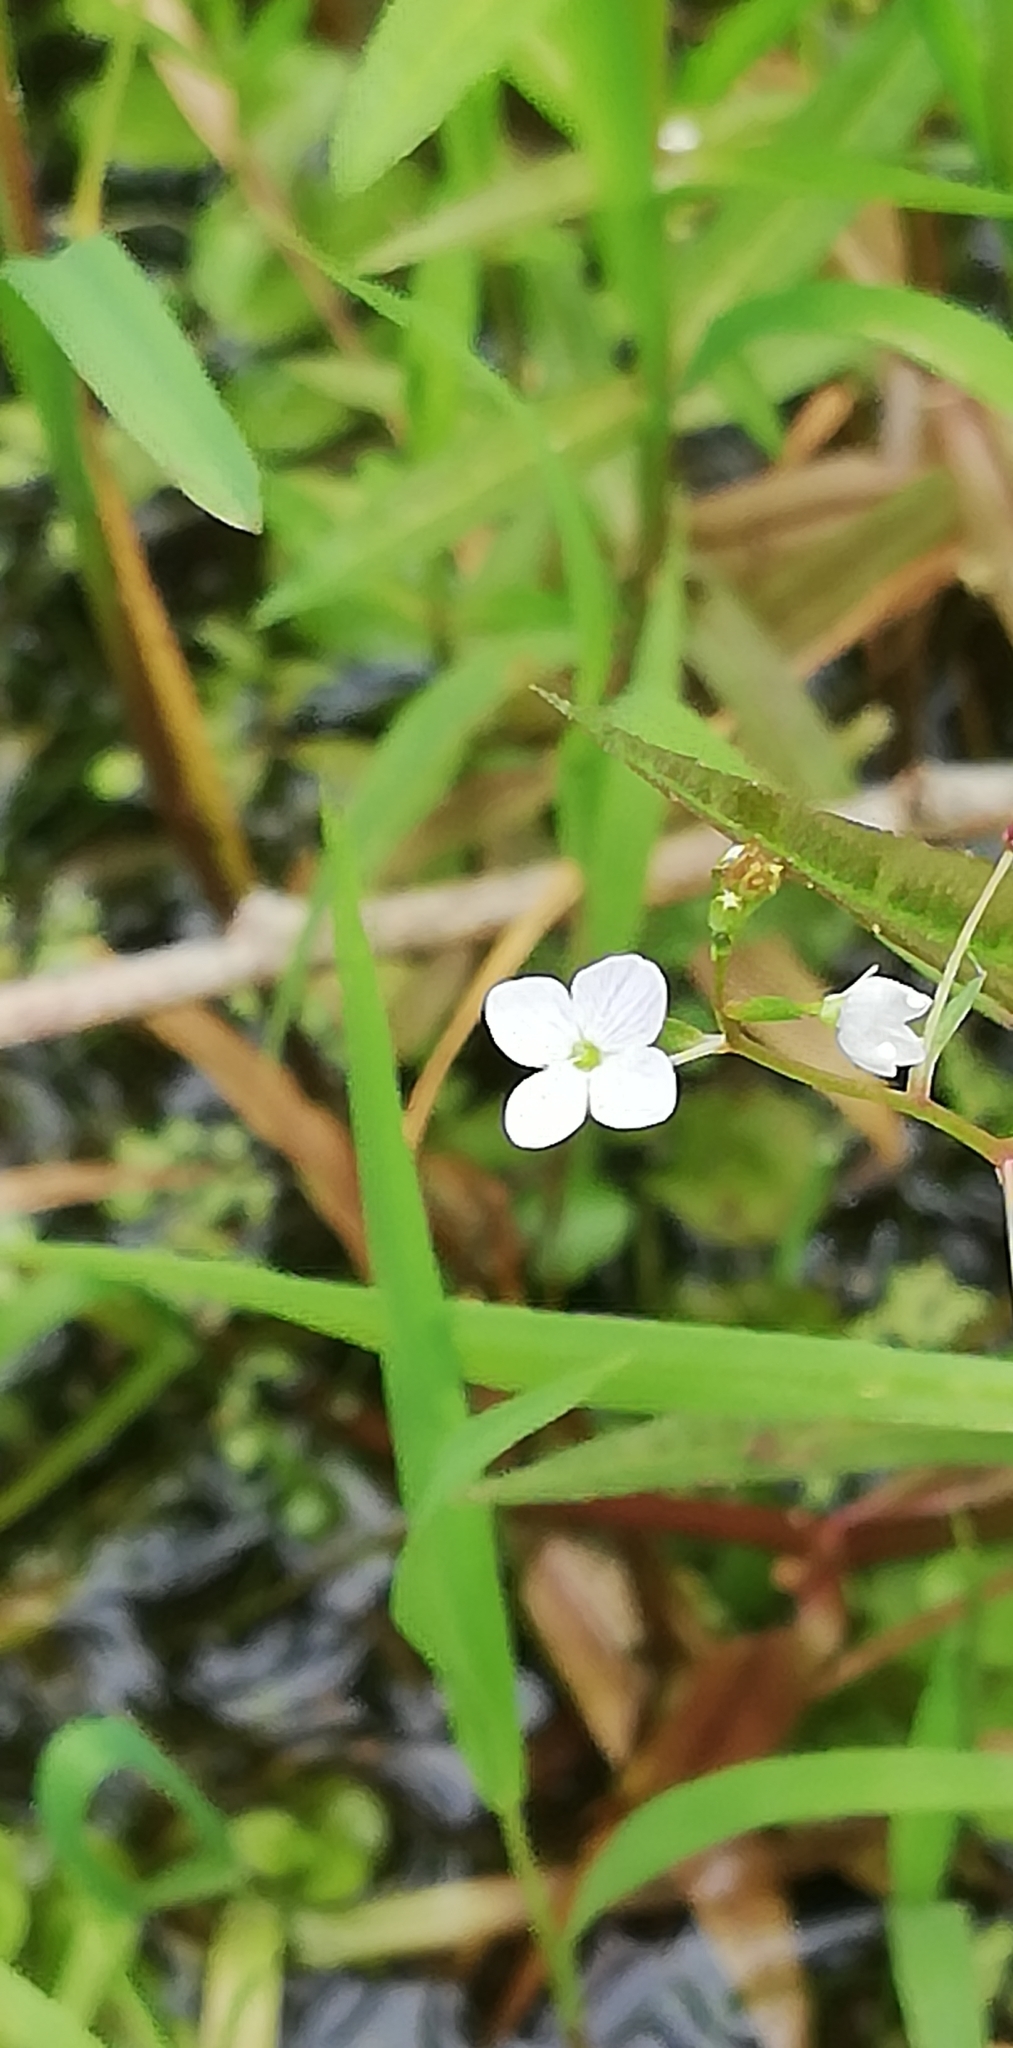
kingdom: Plantae
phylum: Tracheophyta
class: Magnoliopsida
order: Lamiales
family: Plantaginaceae
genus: Veronica
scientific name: Veronica scutellata
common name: Marsh speedwell
